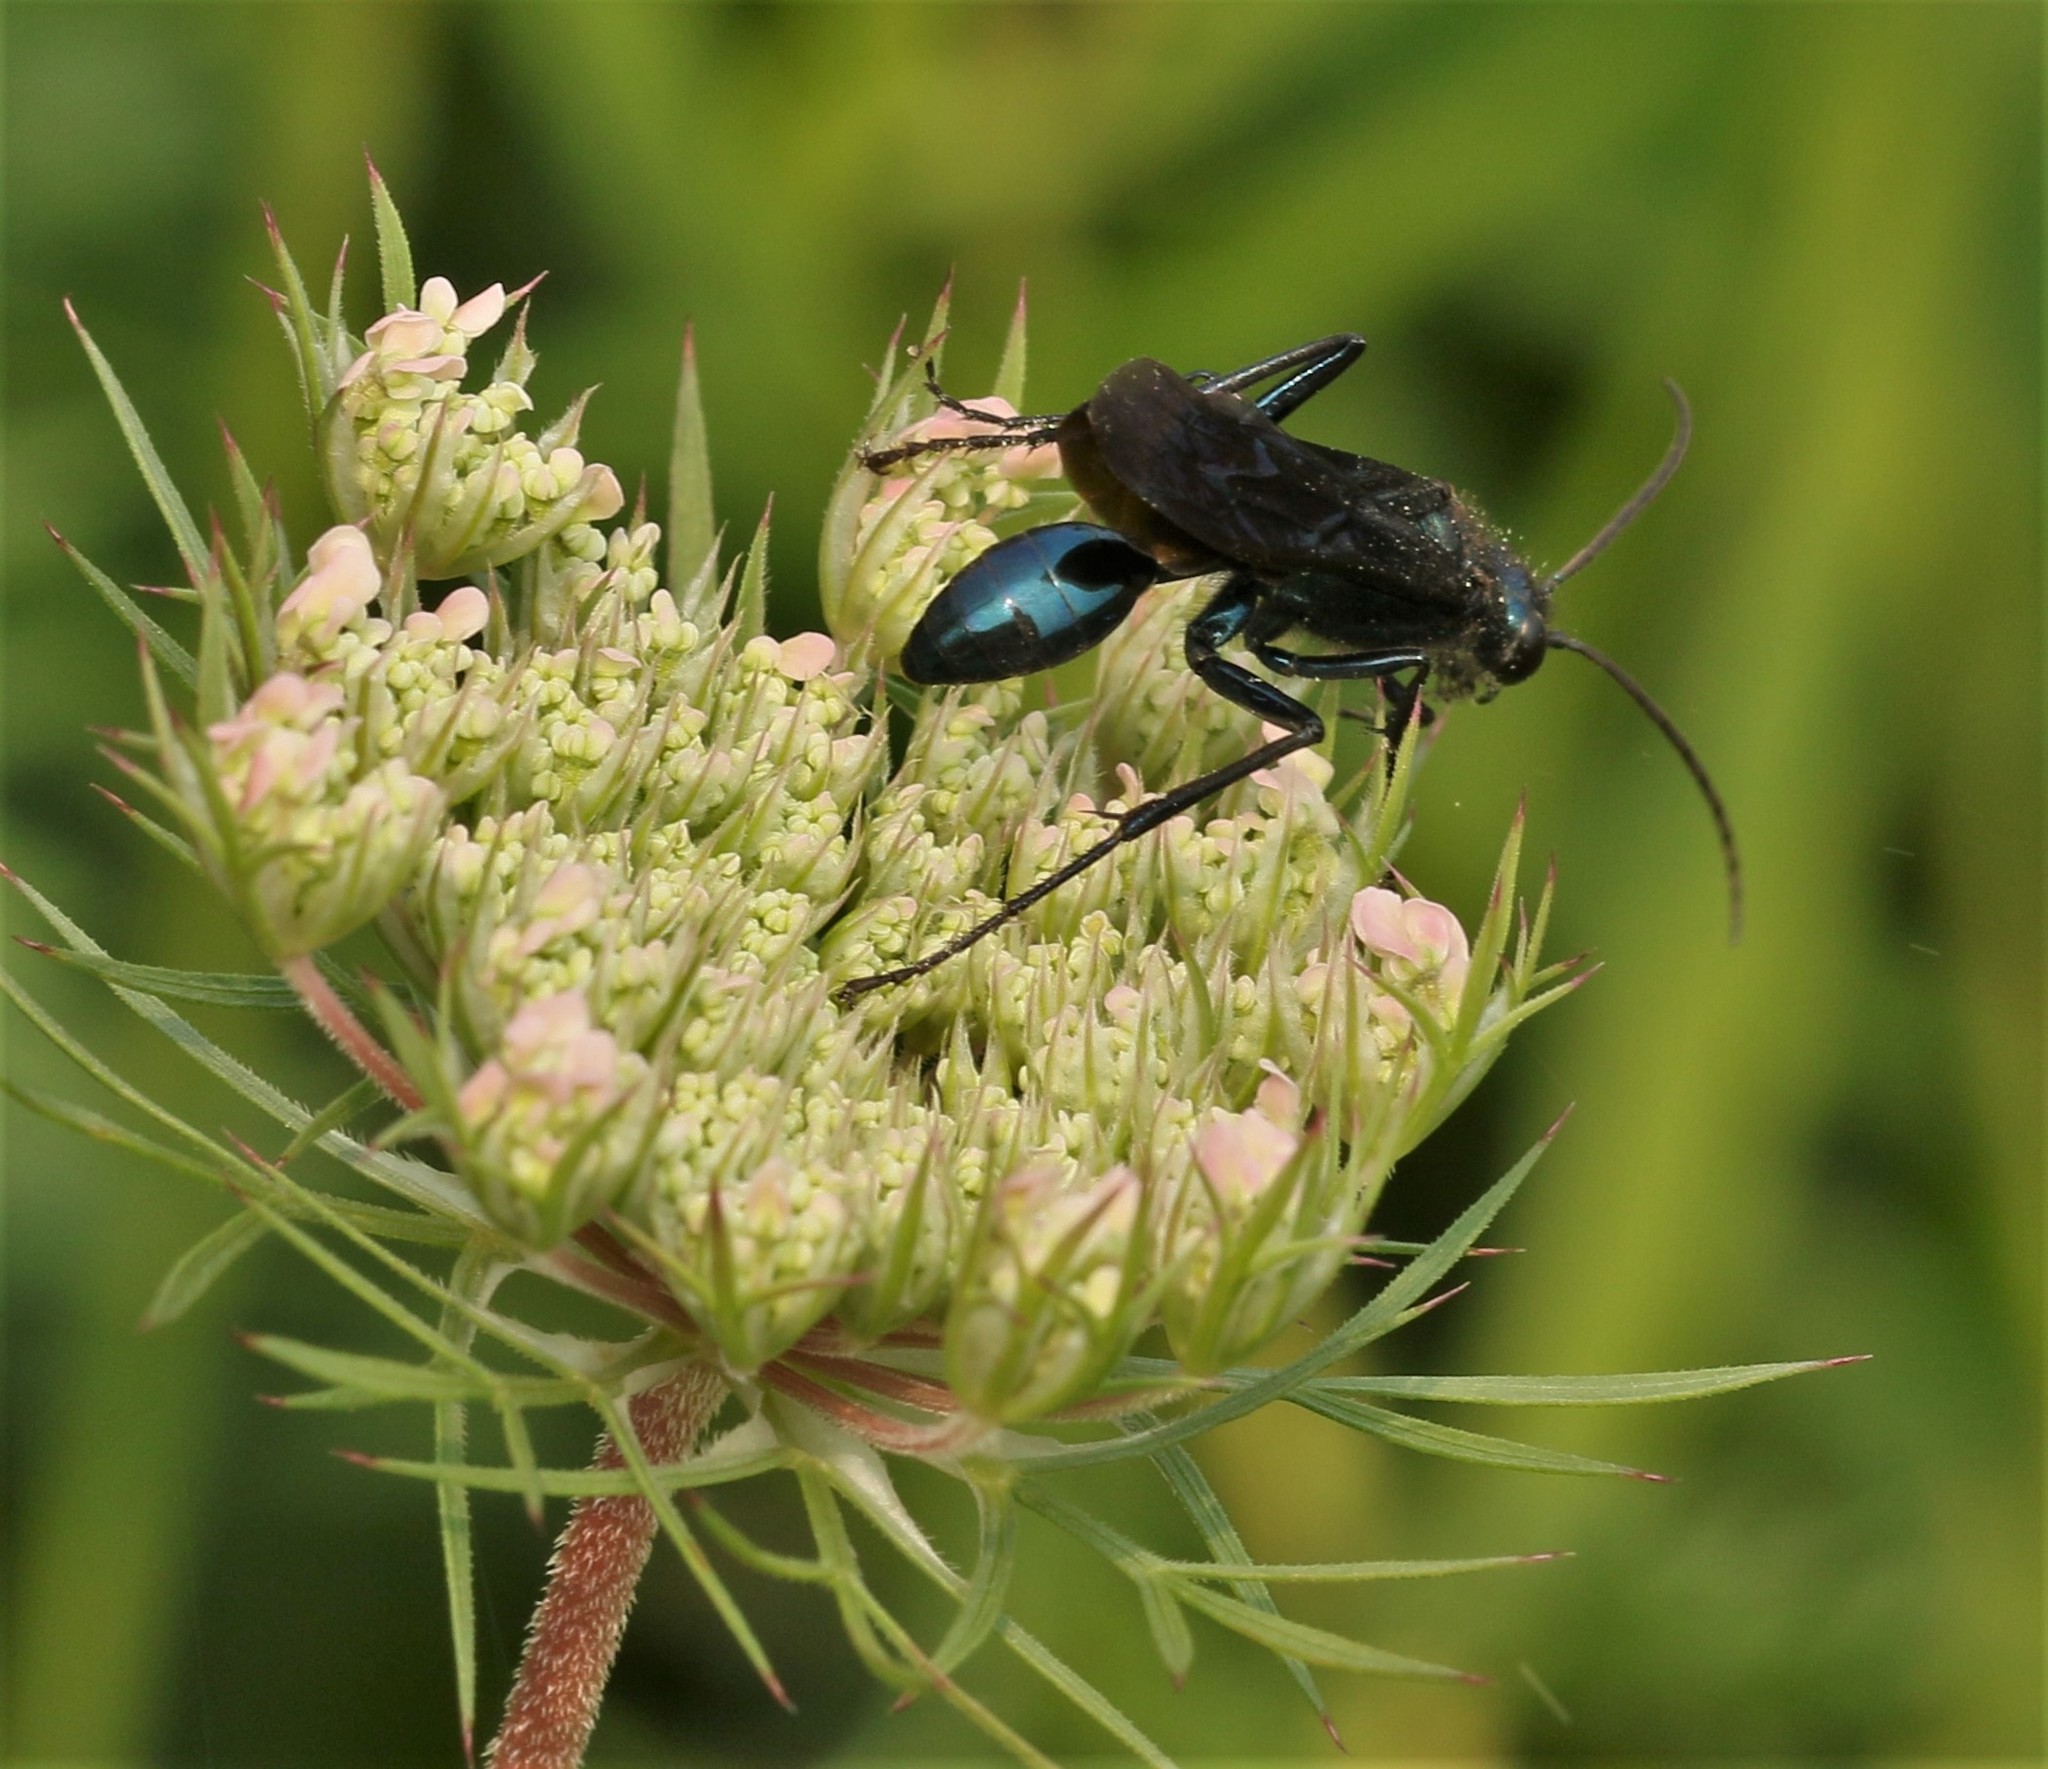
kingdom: Animalia
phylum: Arthropoda
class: Insecta
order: Hymenoptera
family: Sphecidae
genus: Chalybion
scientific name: Chalybion californicum
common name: Mud dauber
